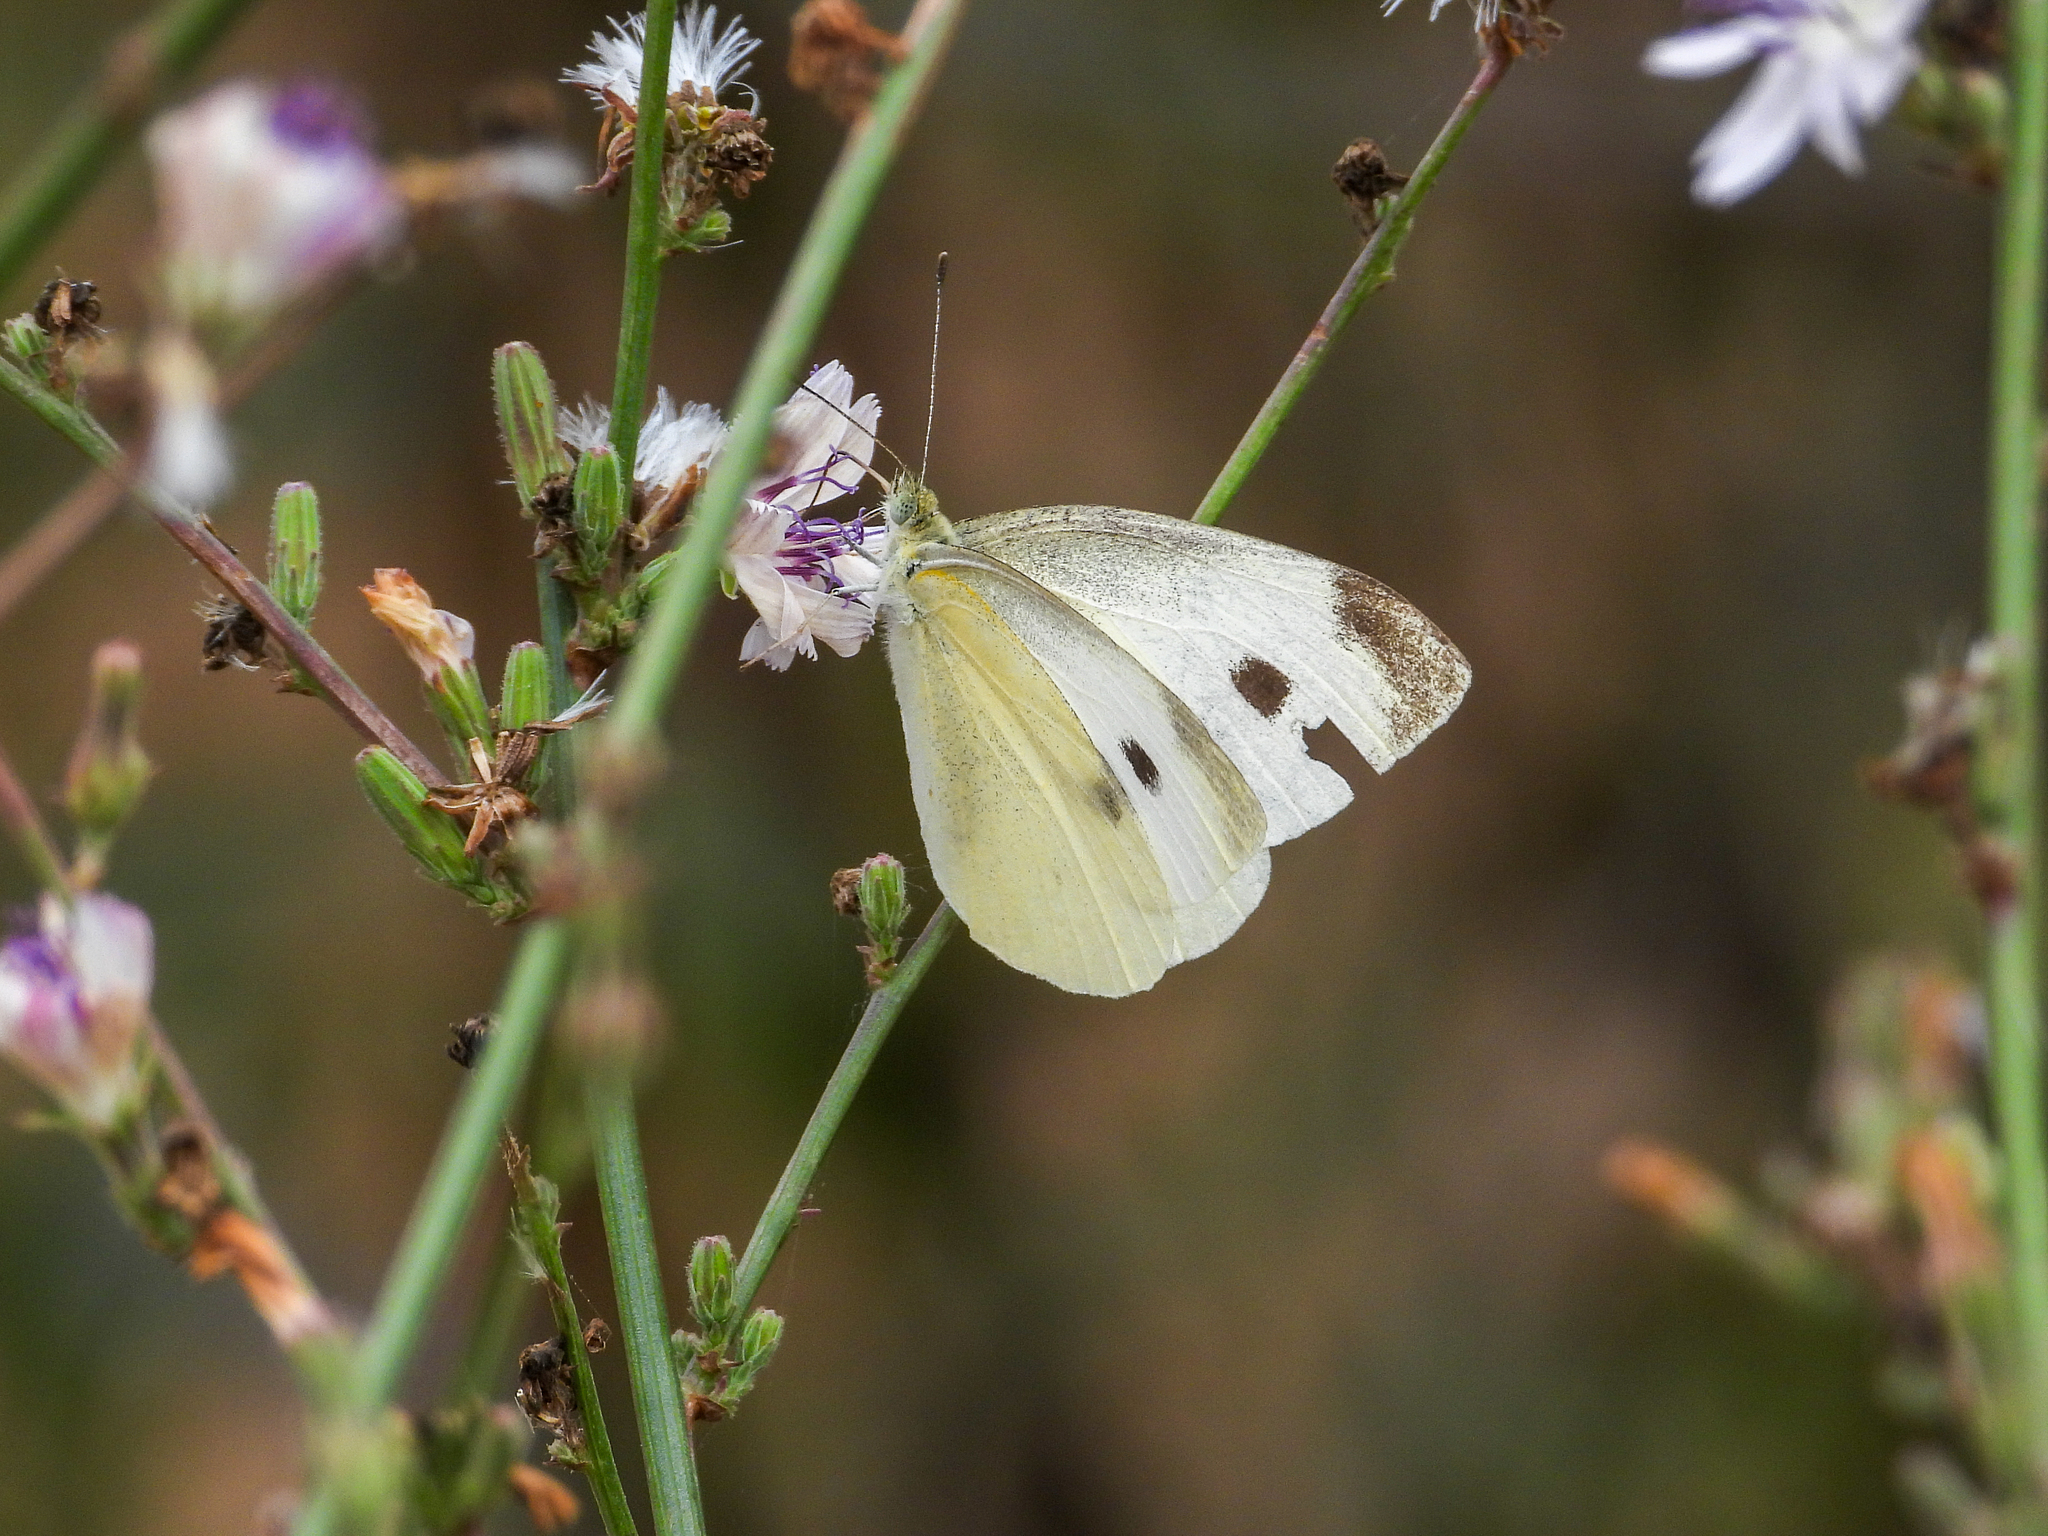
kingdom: Animalia
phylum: Arthropoda
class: Insecta
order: Lepidoptera
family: Pieridae
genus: Pieris
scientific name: Pieris rapae
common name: Small white
